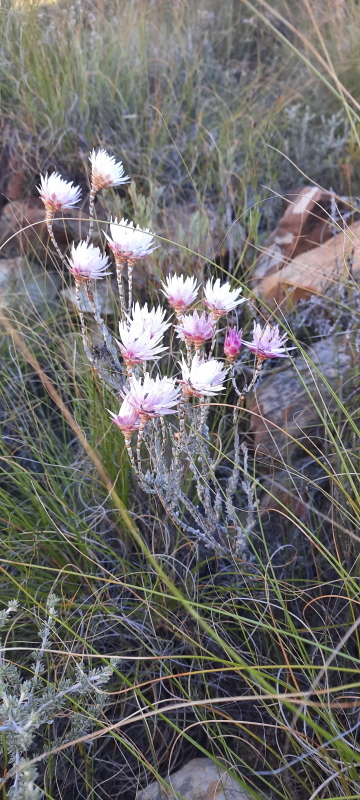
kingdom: Plantae
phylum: Tracheophyta
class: Magnoliopsida
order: Asterales
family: Asteraceae
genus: Syncarpha
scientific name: Syncarpha canescens
